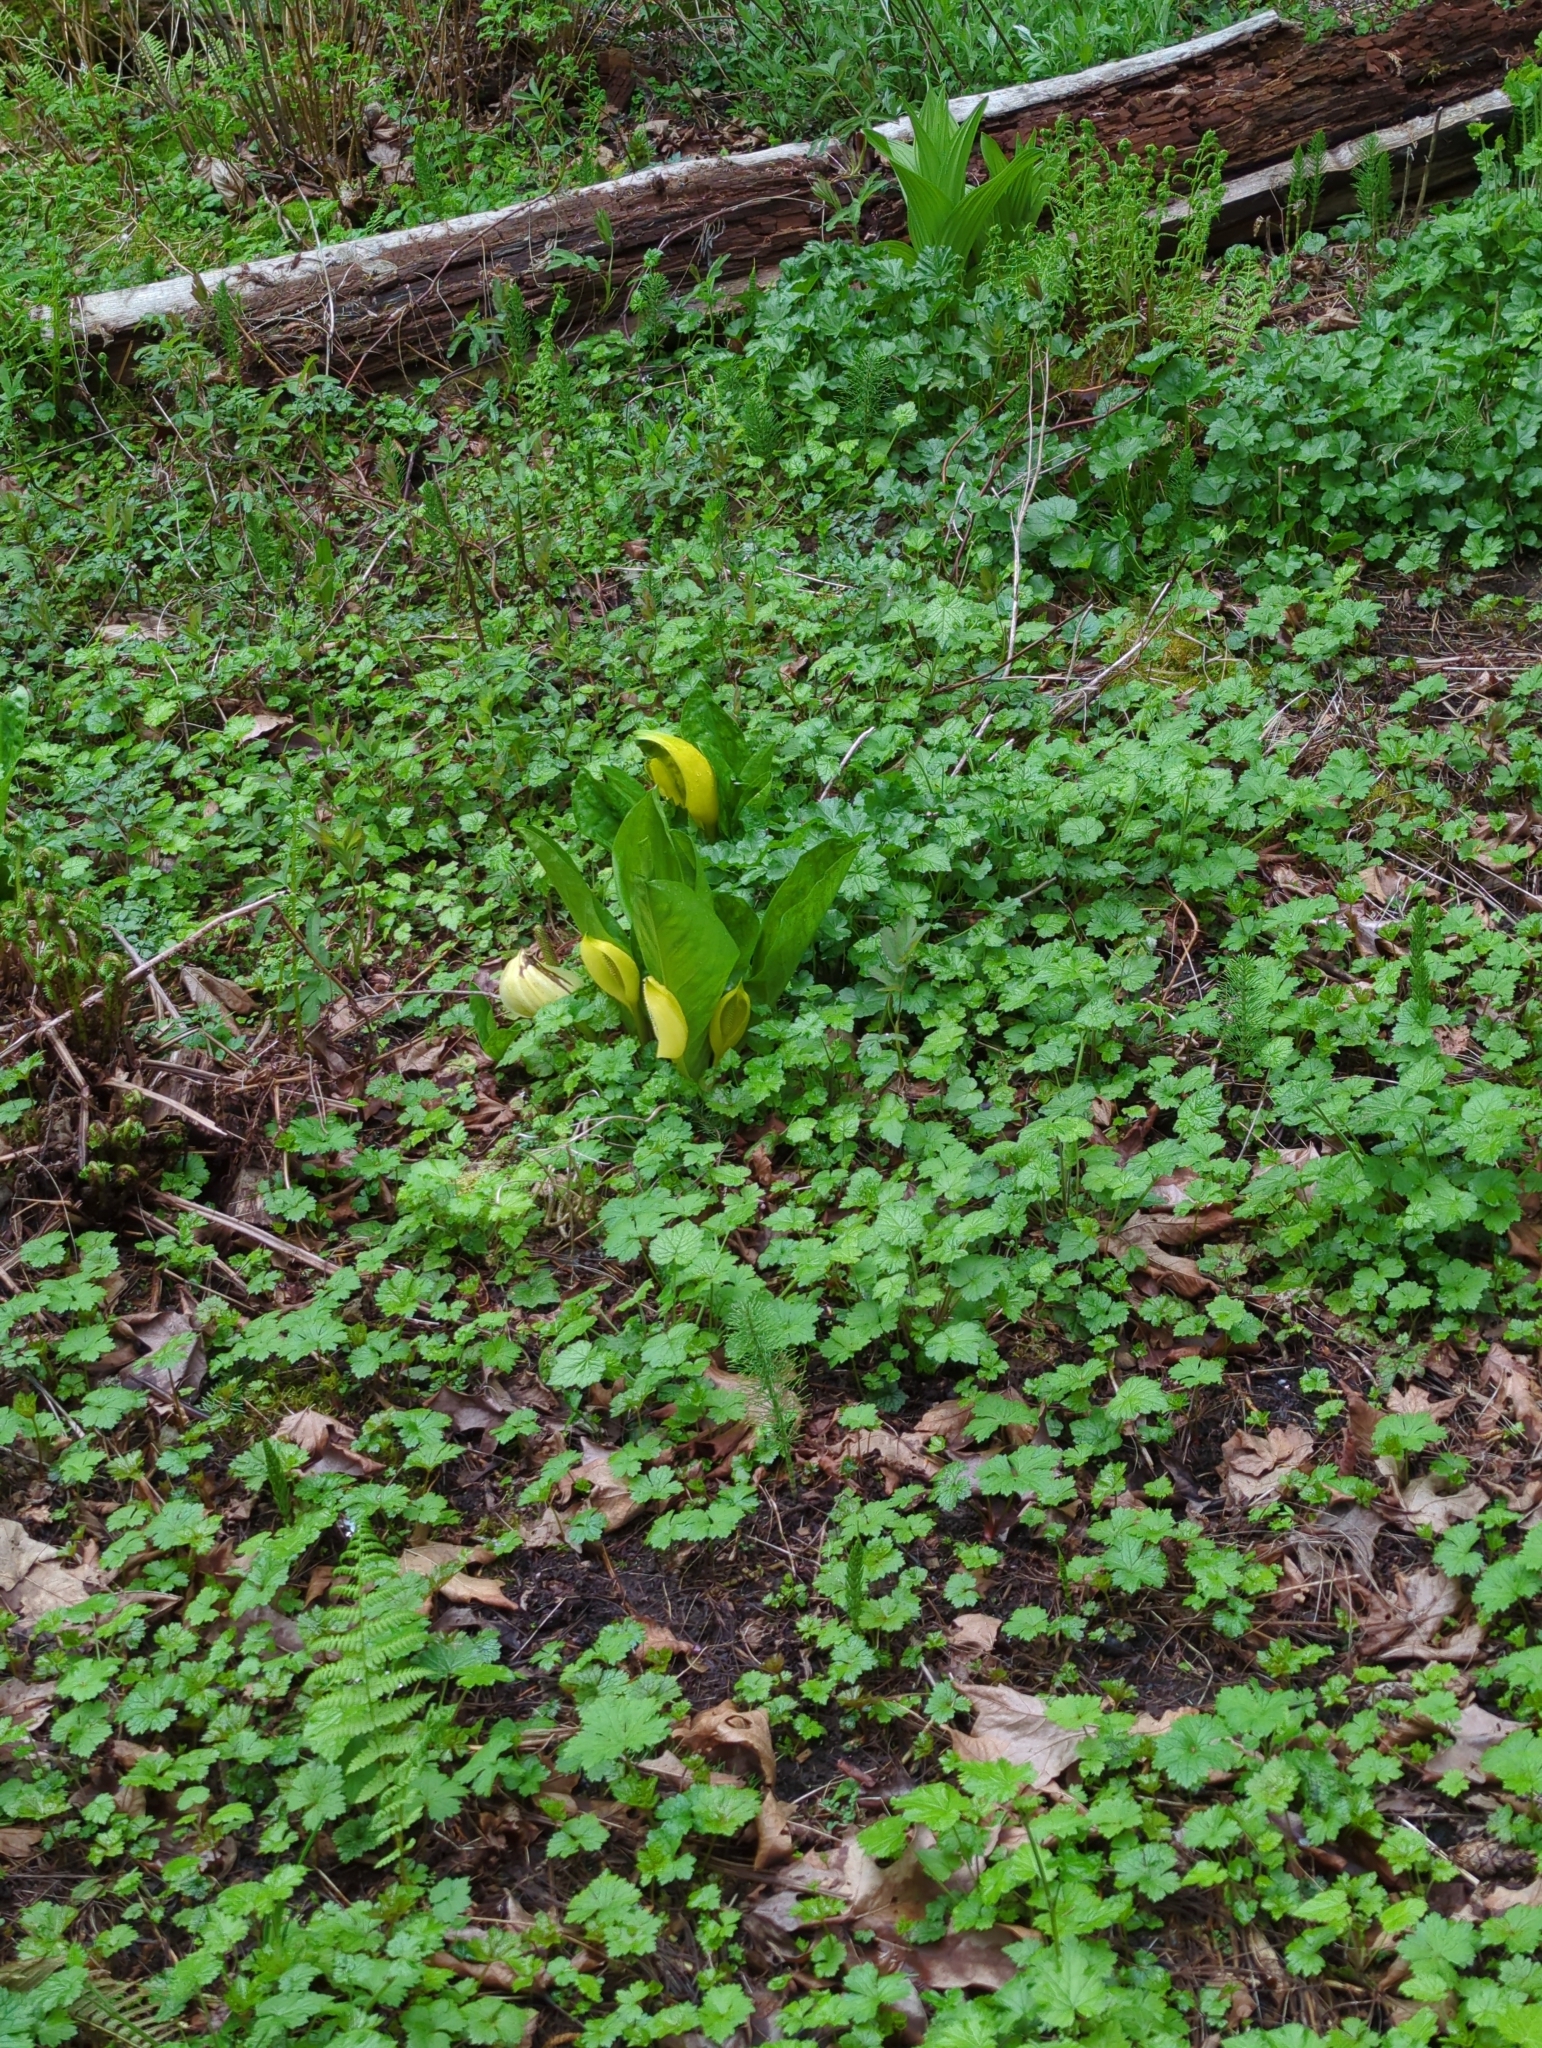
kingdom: Plantae
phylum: Tracheophyta
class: Liliopsida
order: Alismatales
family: Araceae
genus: Lysichiton
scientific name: Lysichiton americanus
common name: American skunk cabbage
